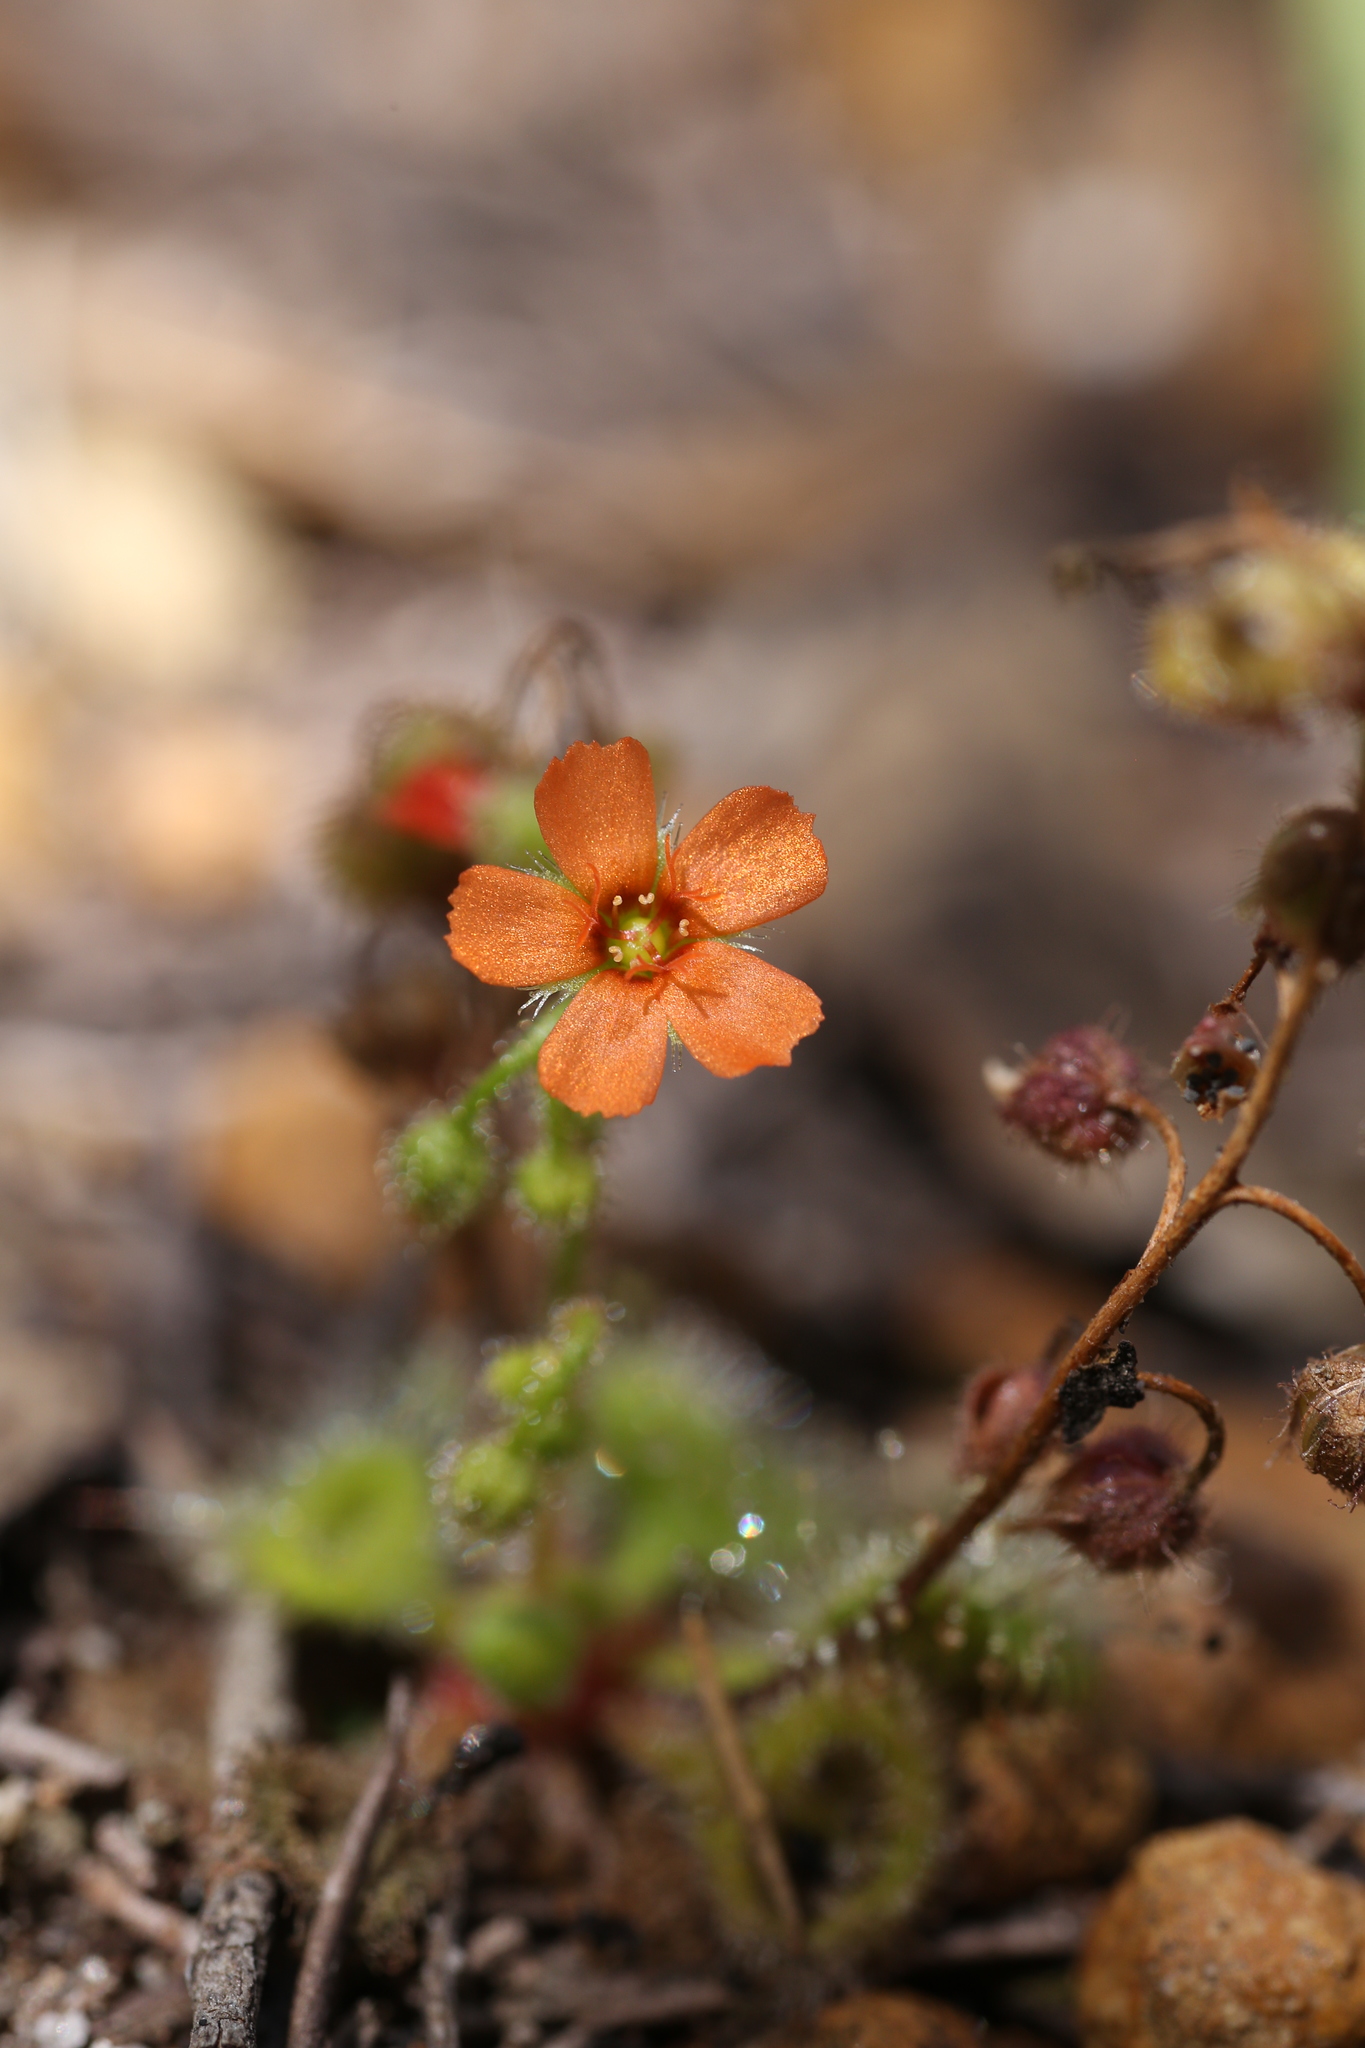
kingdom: Plantae
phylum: Tracheophyta
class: Magnoliopsida
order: Caryophyllales
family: Droseraceae
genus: Drosera
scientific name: Drosera glanduligera
